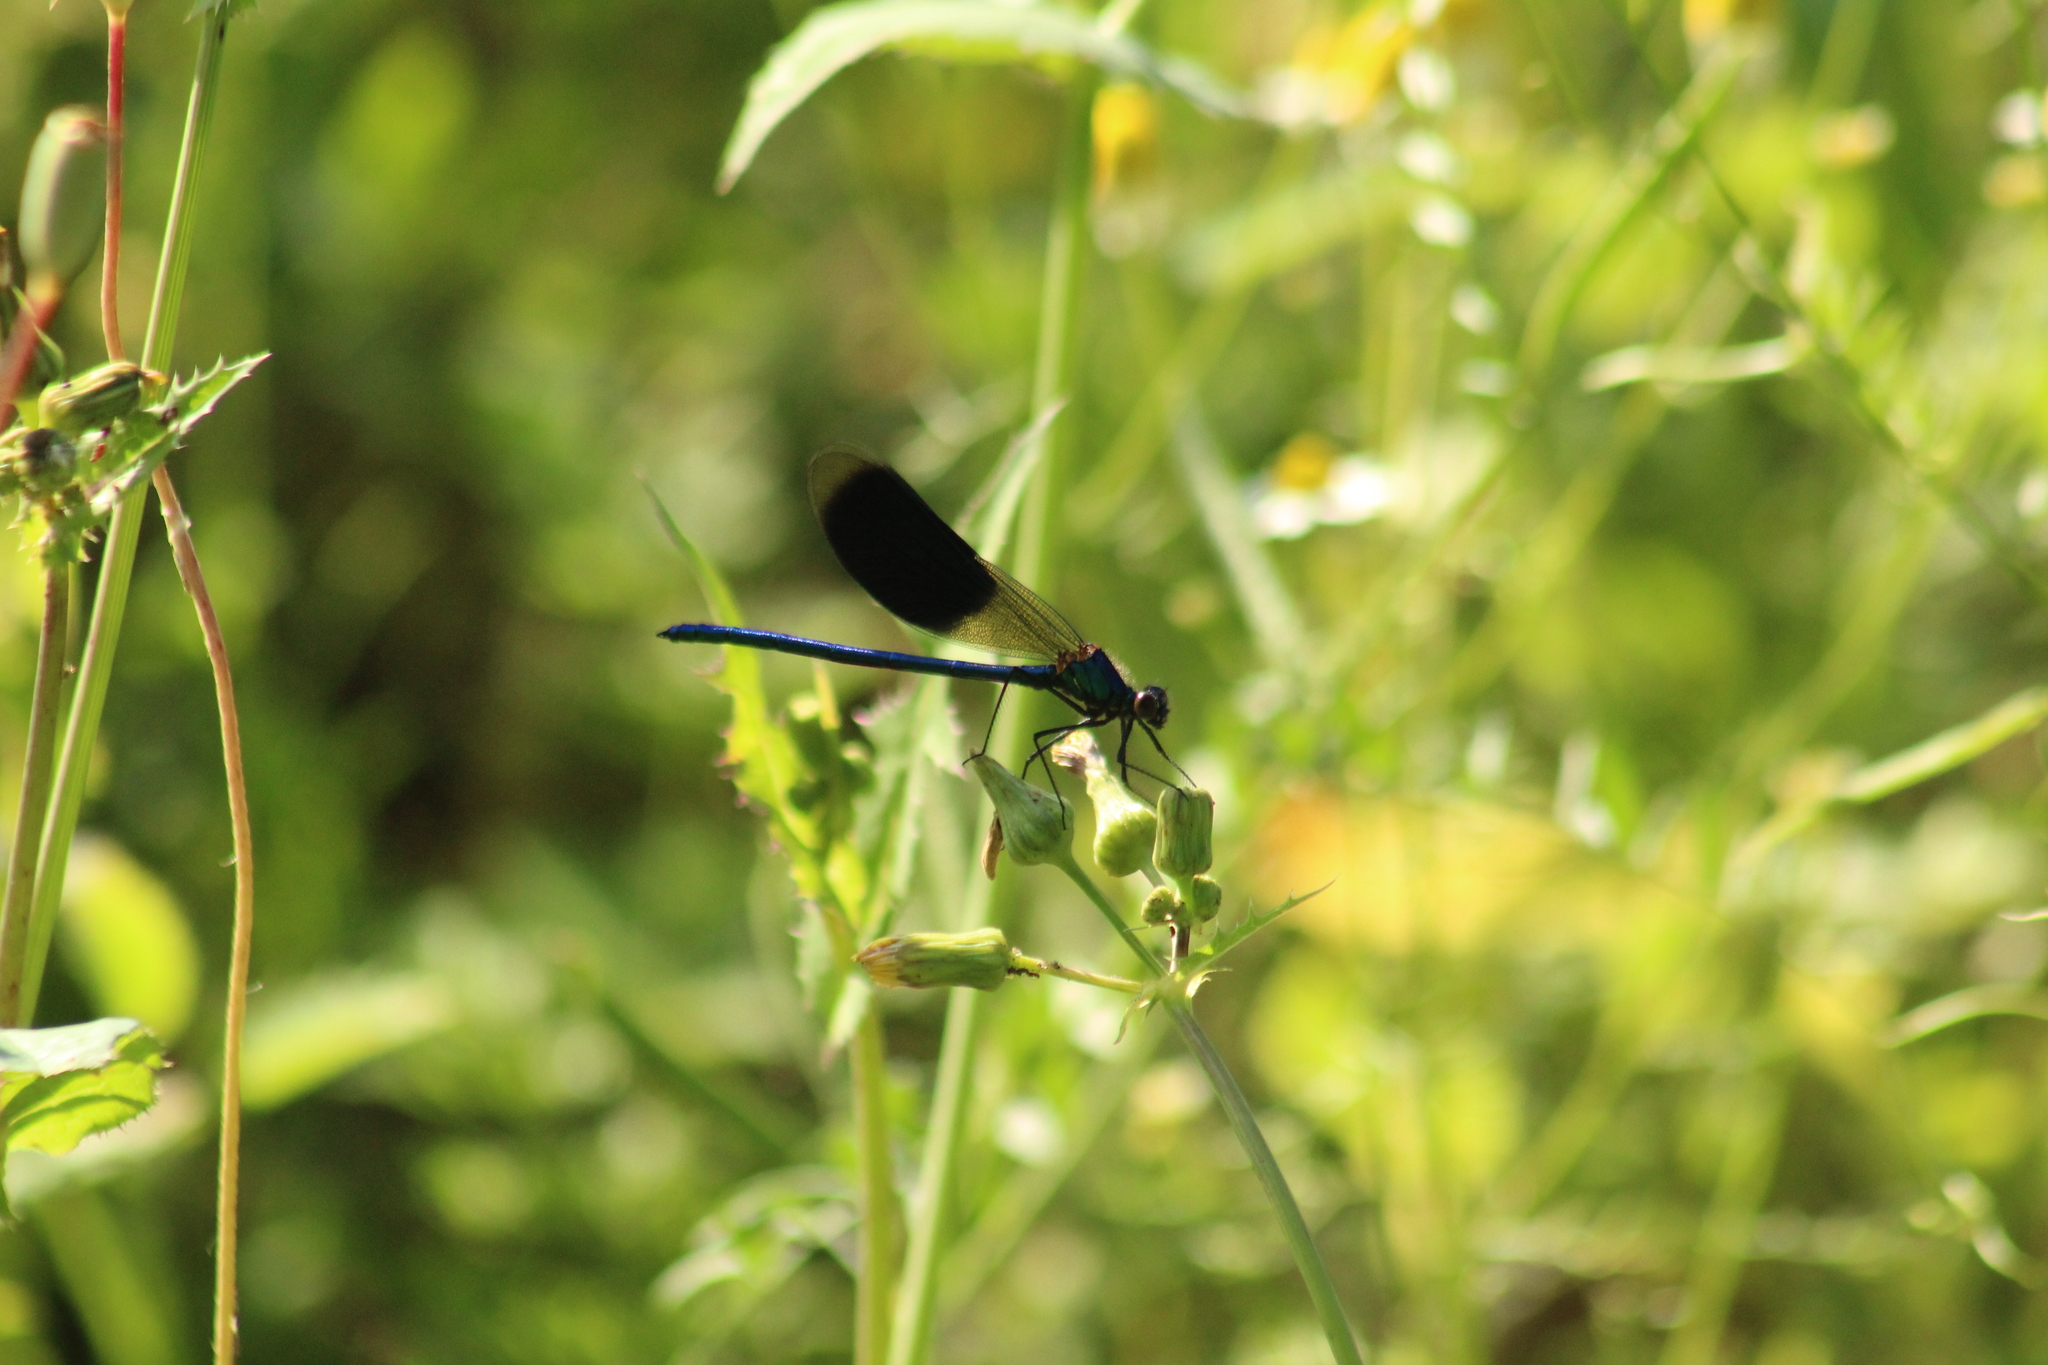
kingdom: Animalia
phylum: Arthropoda
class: Insecta
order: Odonata
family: Calopterygidae
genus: Calopteryx
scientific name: Calopteryx splendens
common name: Banded demoiselle
